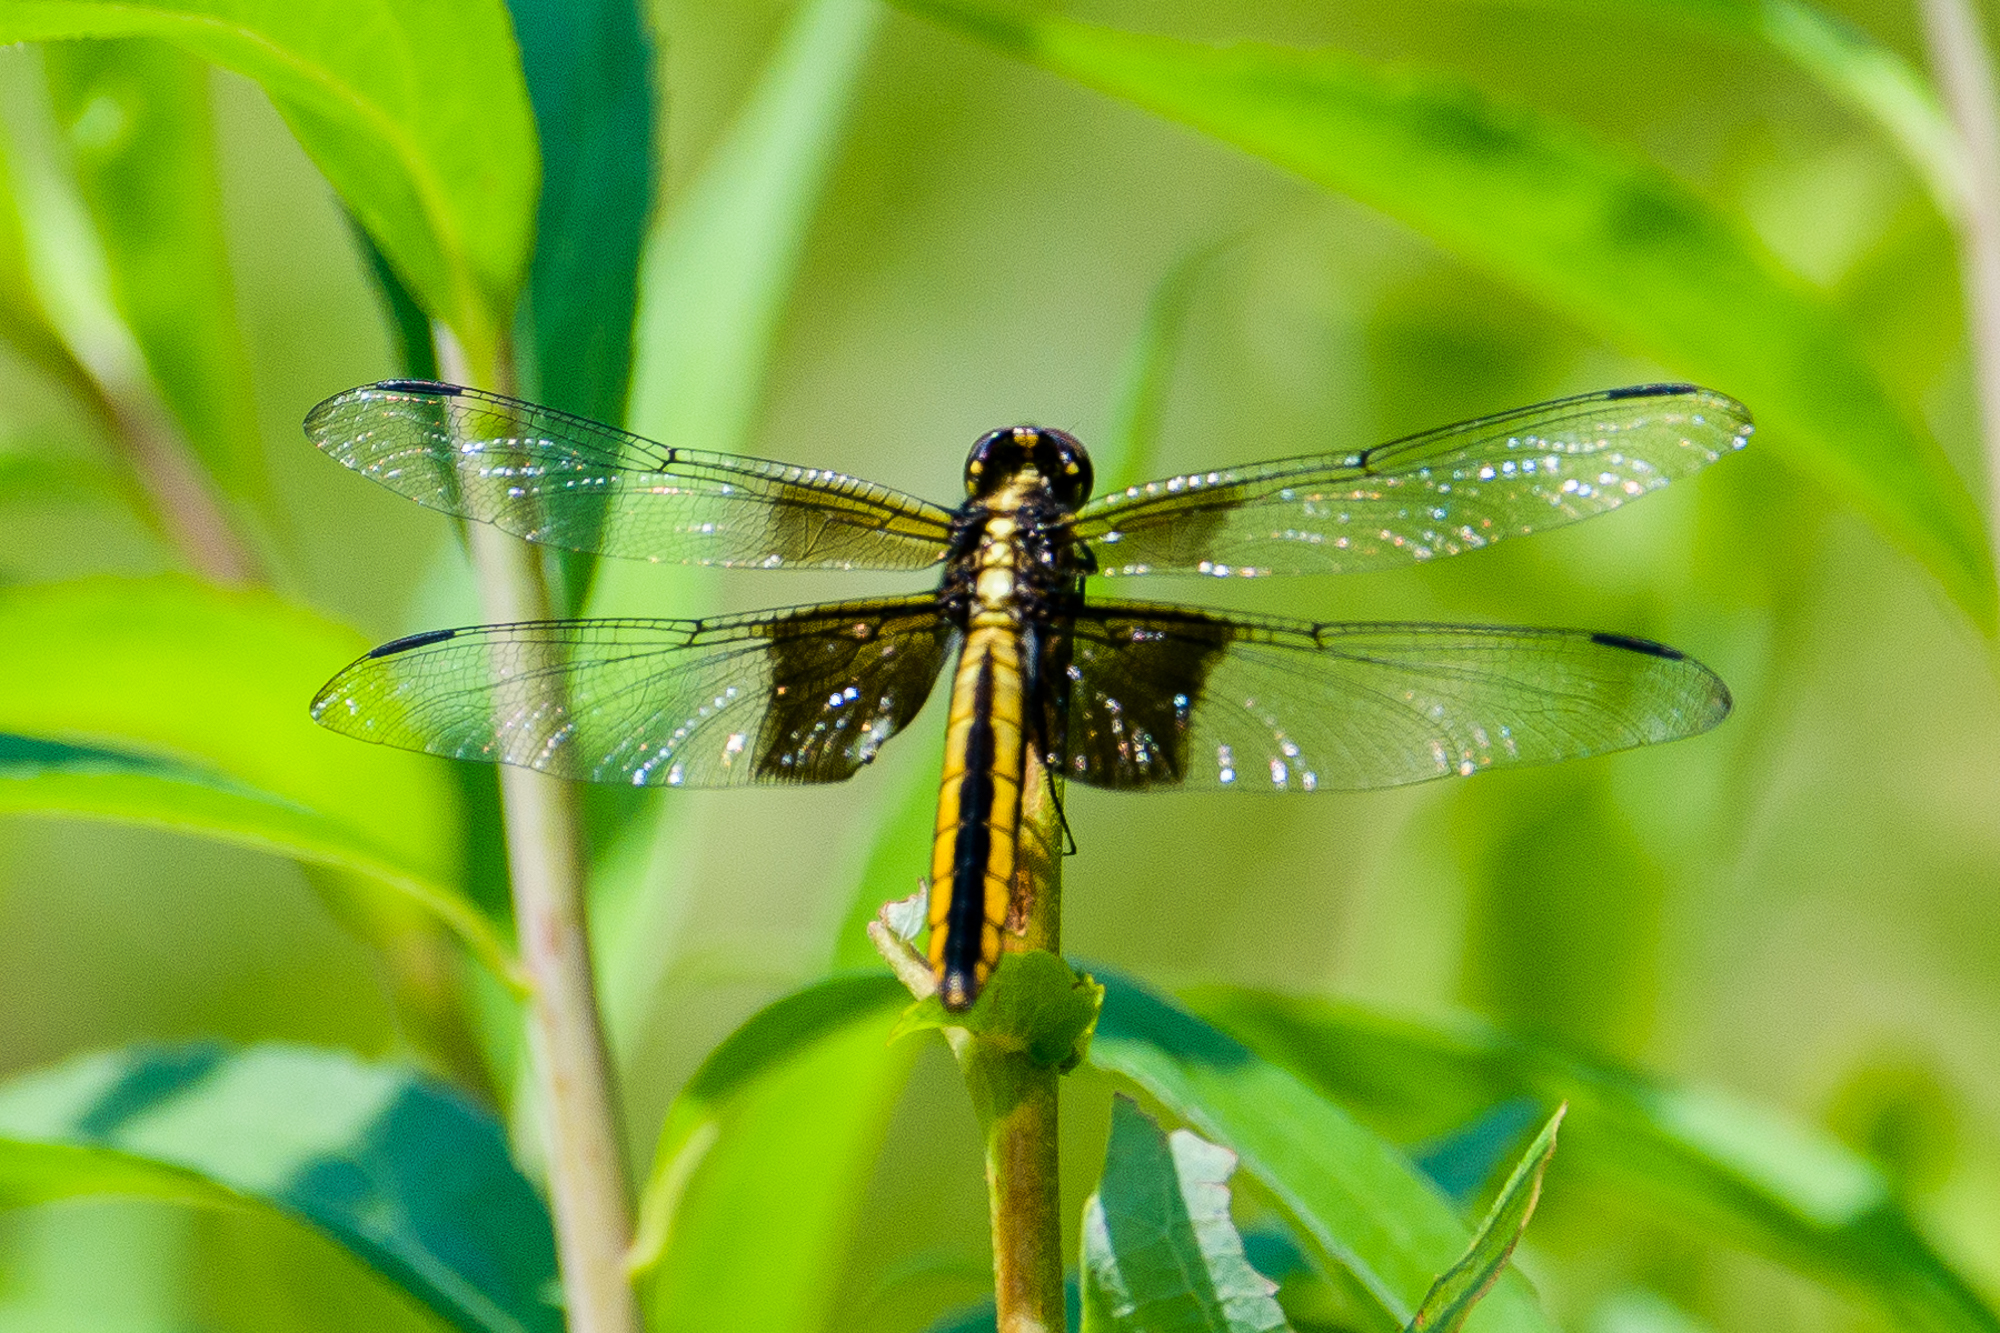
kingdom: Animalia
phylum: Arthropoda
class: Insecta
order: Odonata
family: Libellulidae
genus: Libellula
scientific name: Libellula luctuosa
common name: Widow skimmer
